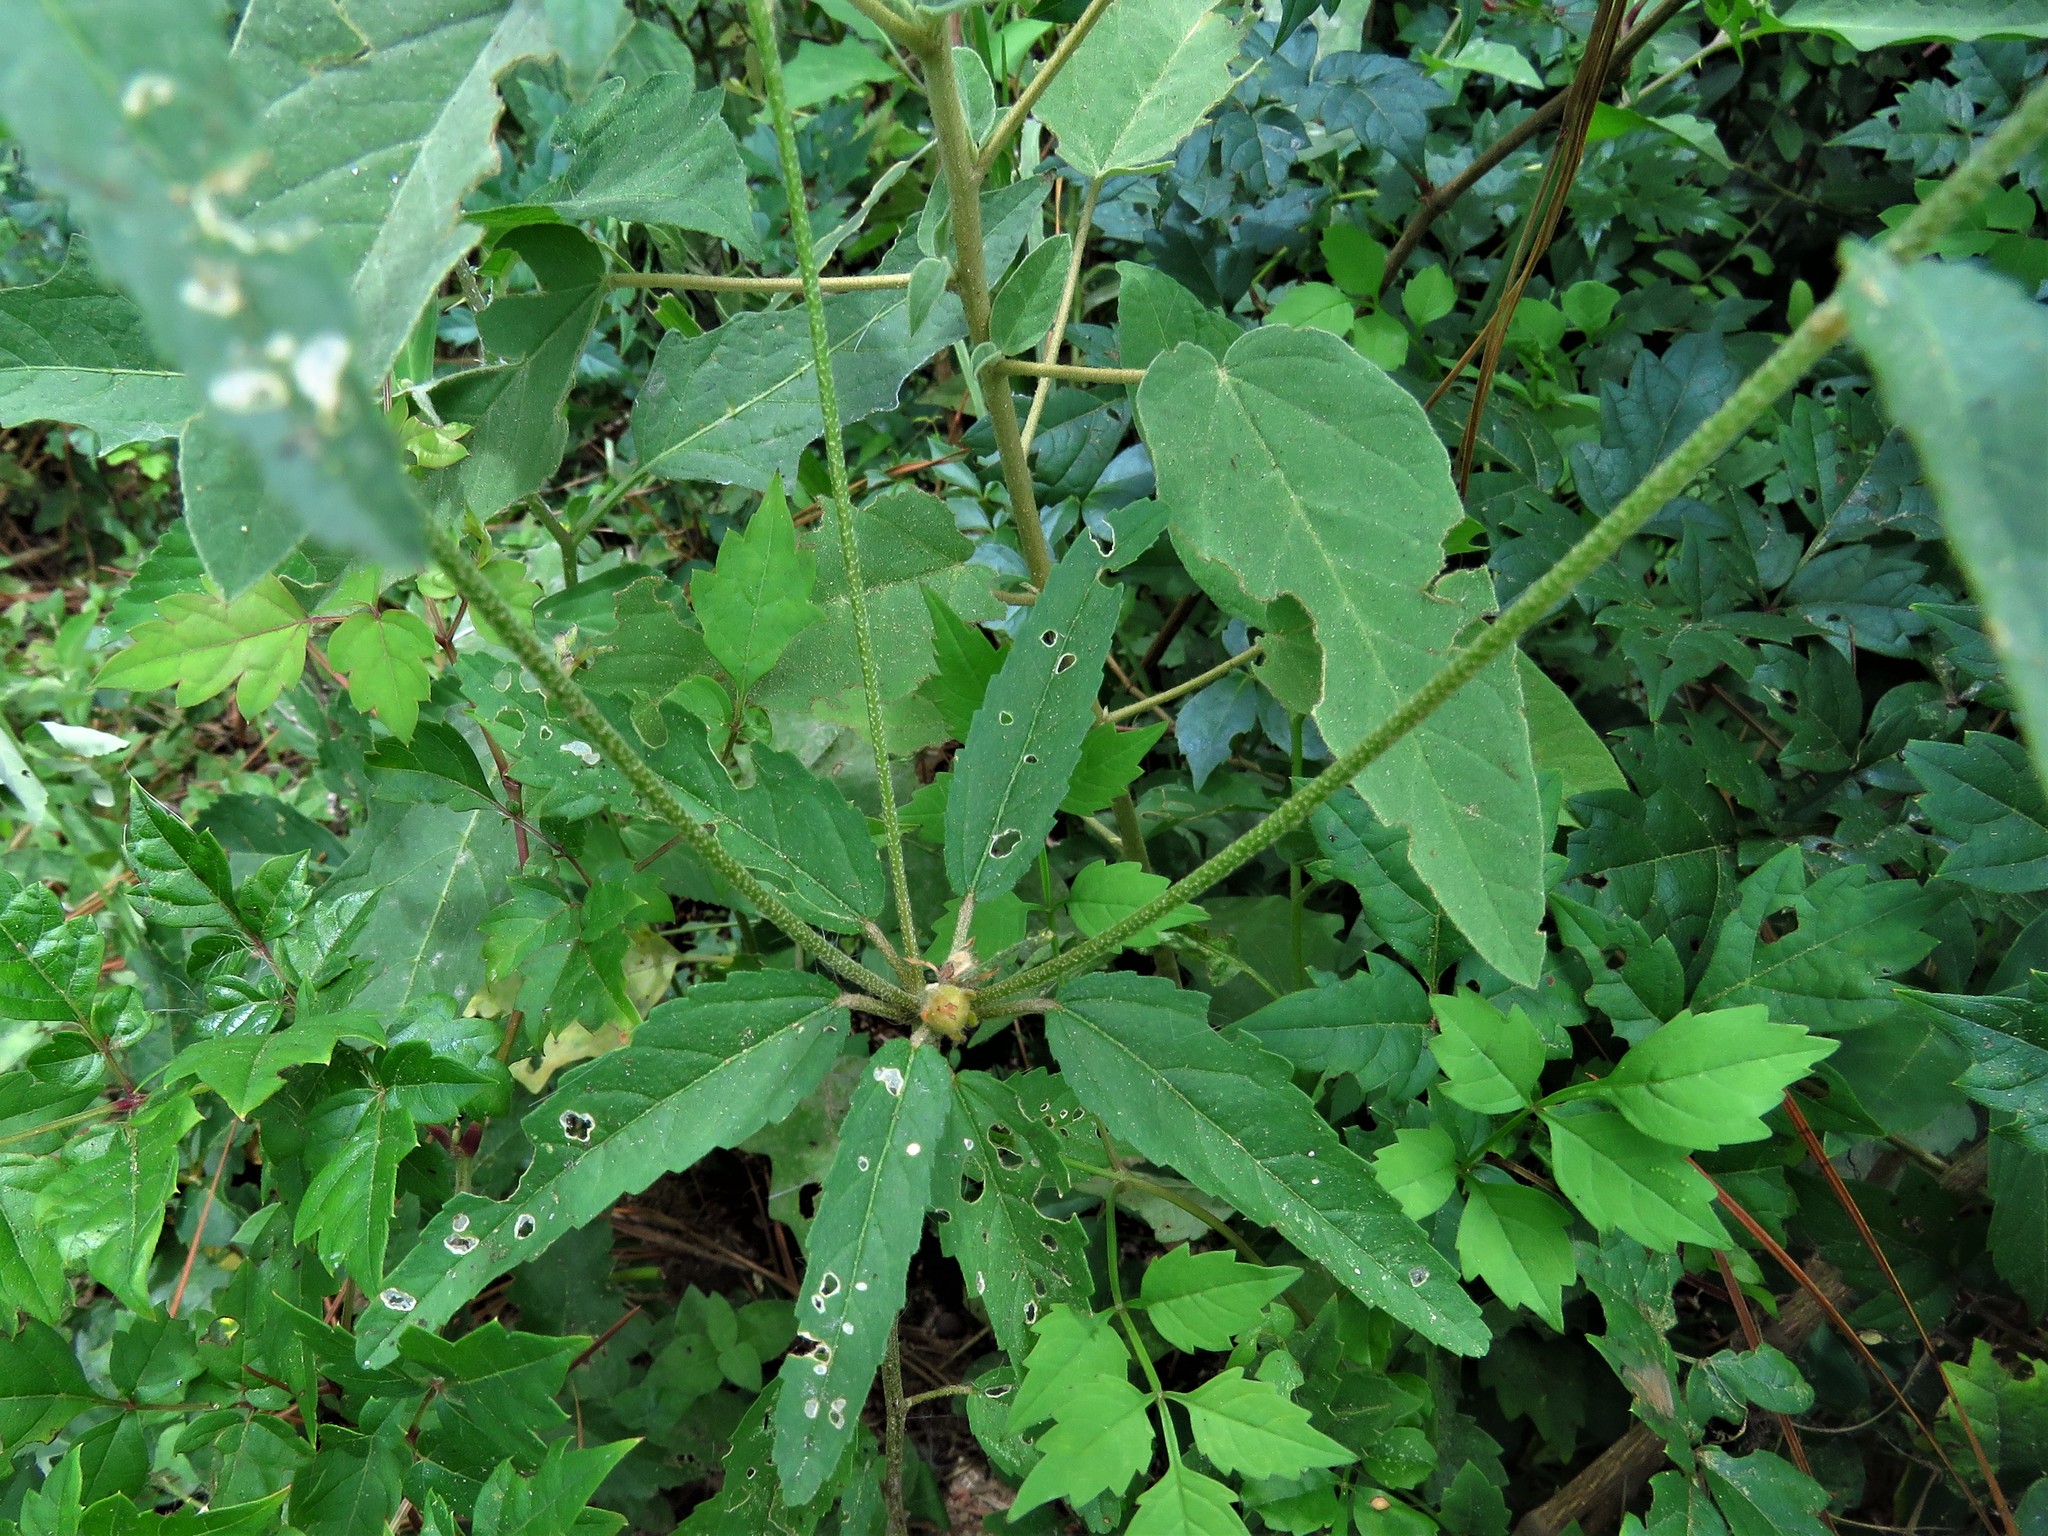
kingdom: Plantae
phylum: Tracheophyta
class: Magnoliopsida
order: Malpighiales
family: Euphorbiaceae
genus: Croton
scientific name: Croton glandulosus
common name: Tropic croton
